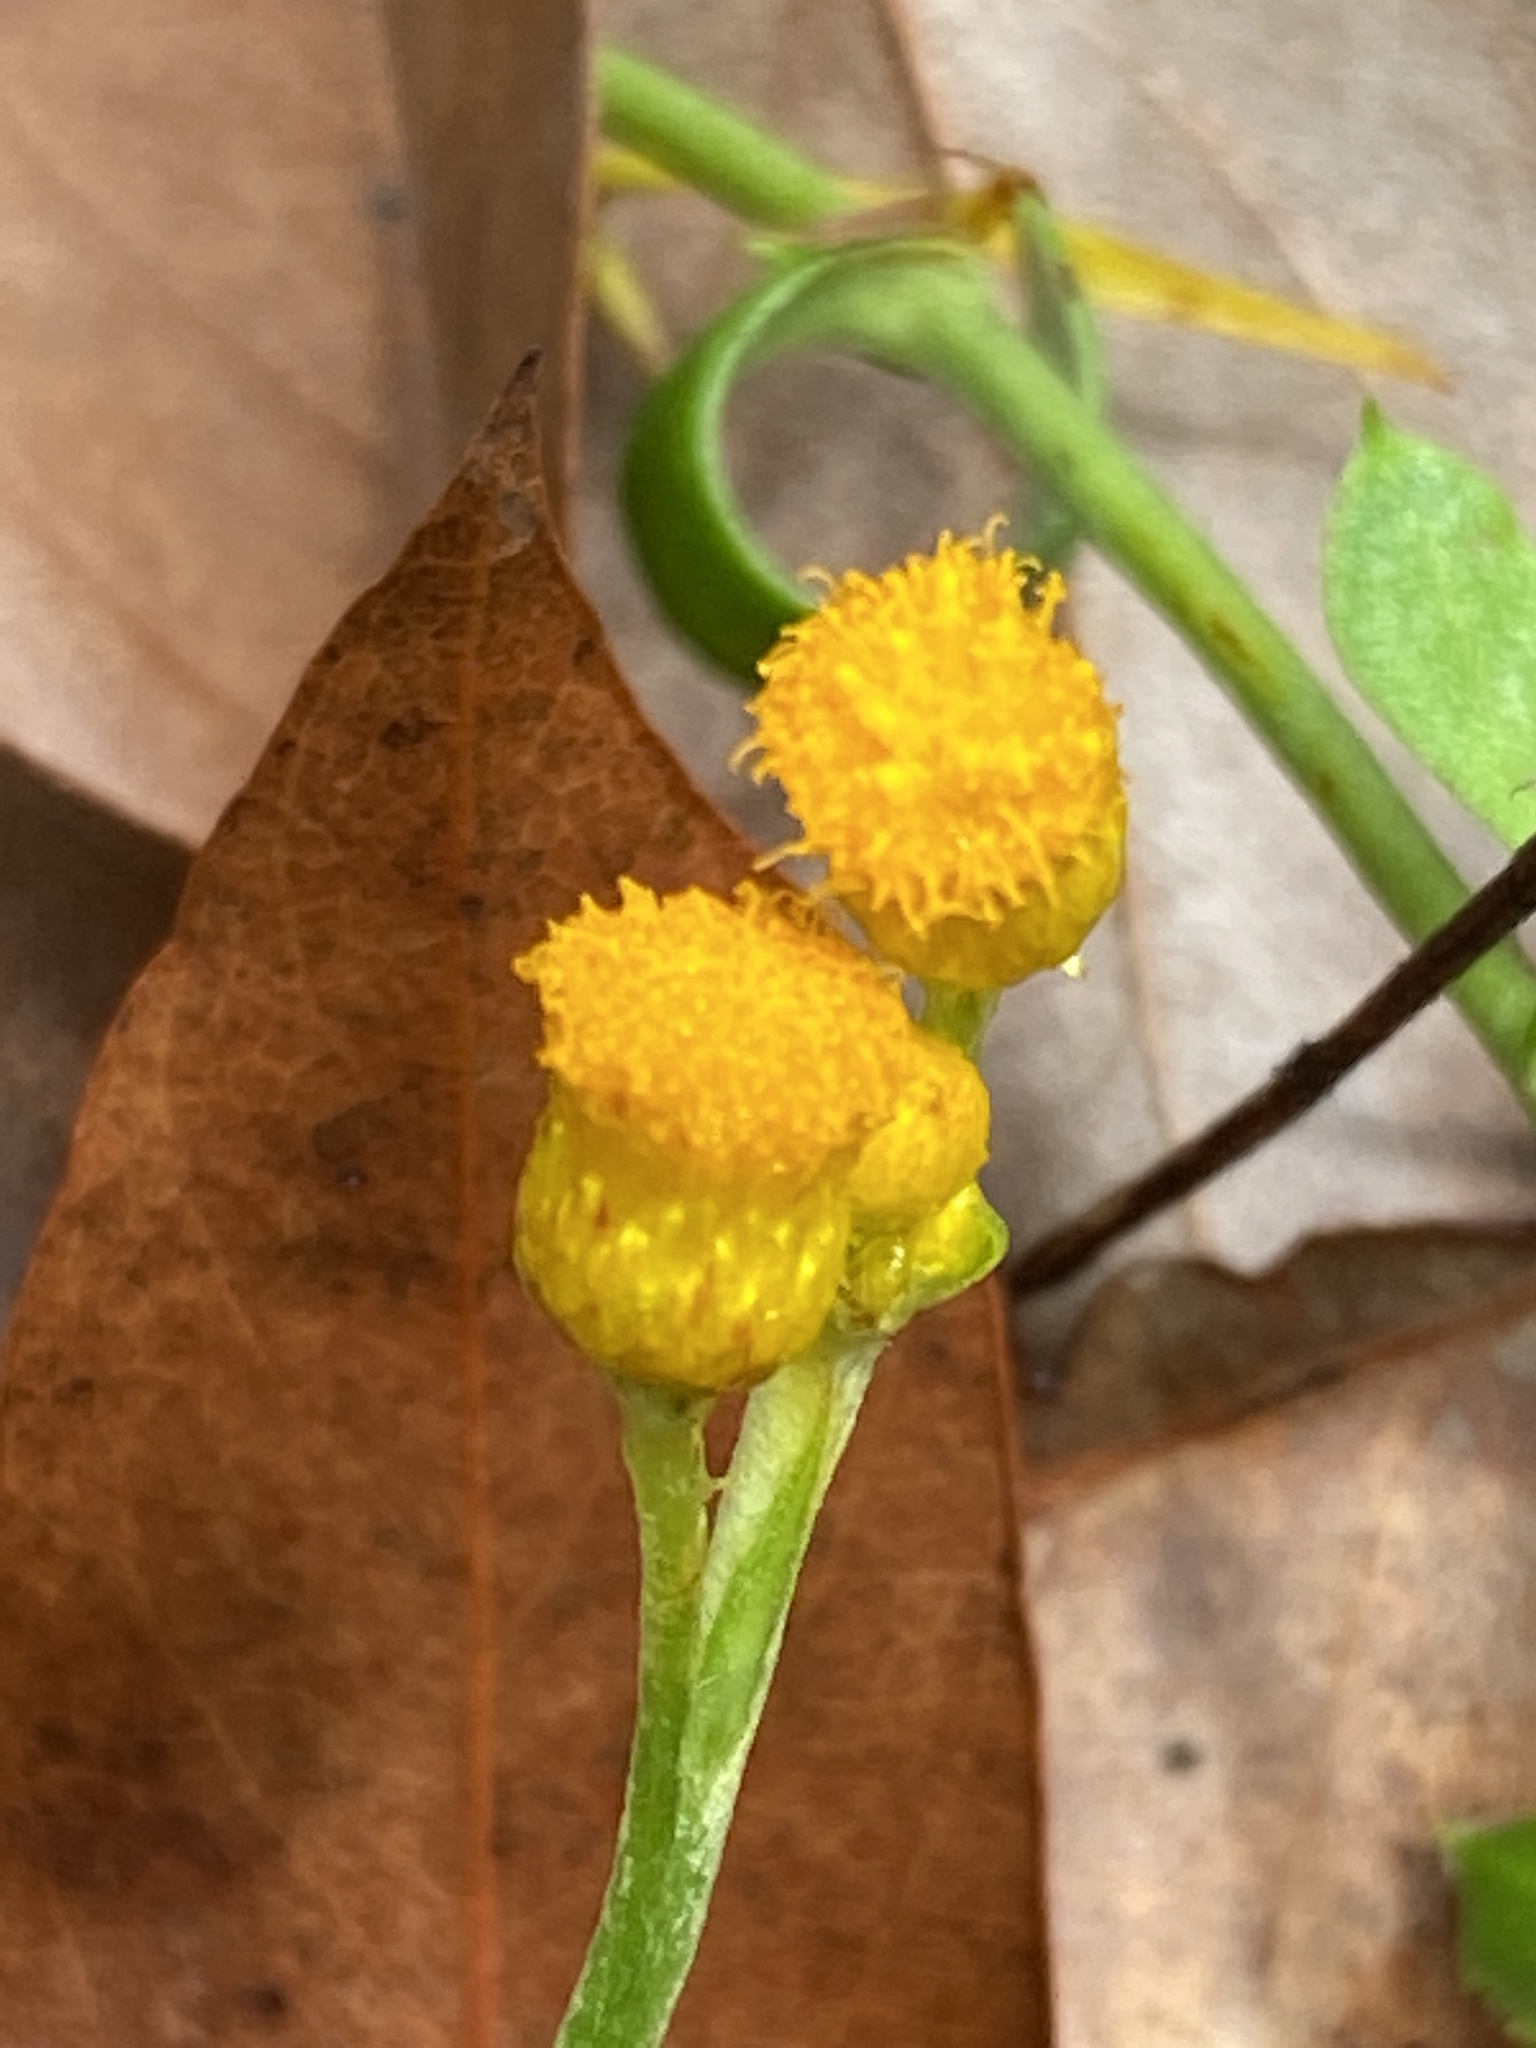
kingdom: Plantae
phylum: Tracheophyta
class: Magnoliopsida
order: Asterales
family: Asteraceae
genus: Chrysocephalum
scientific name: Chrysocephalum apiculatum
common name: Common everlasting
